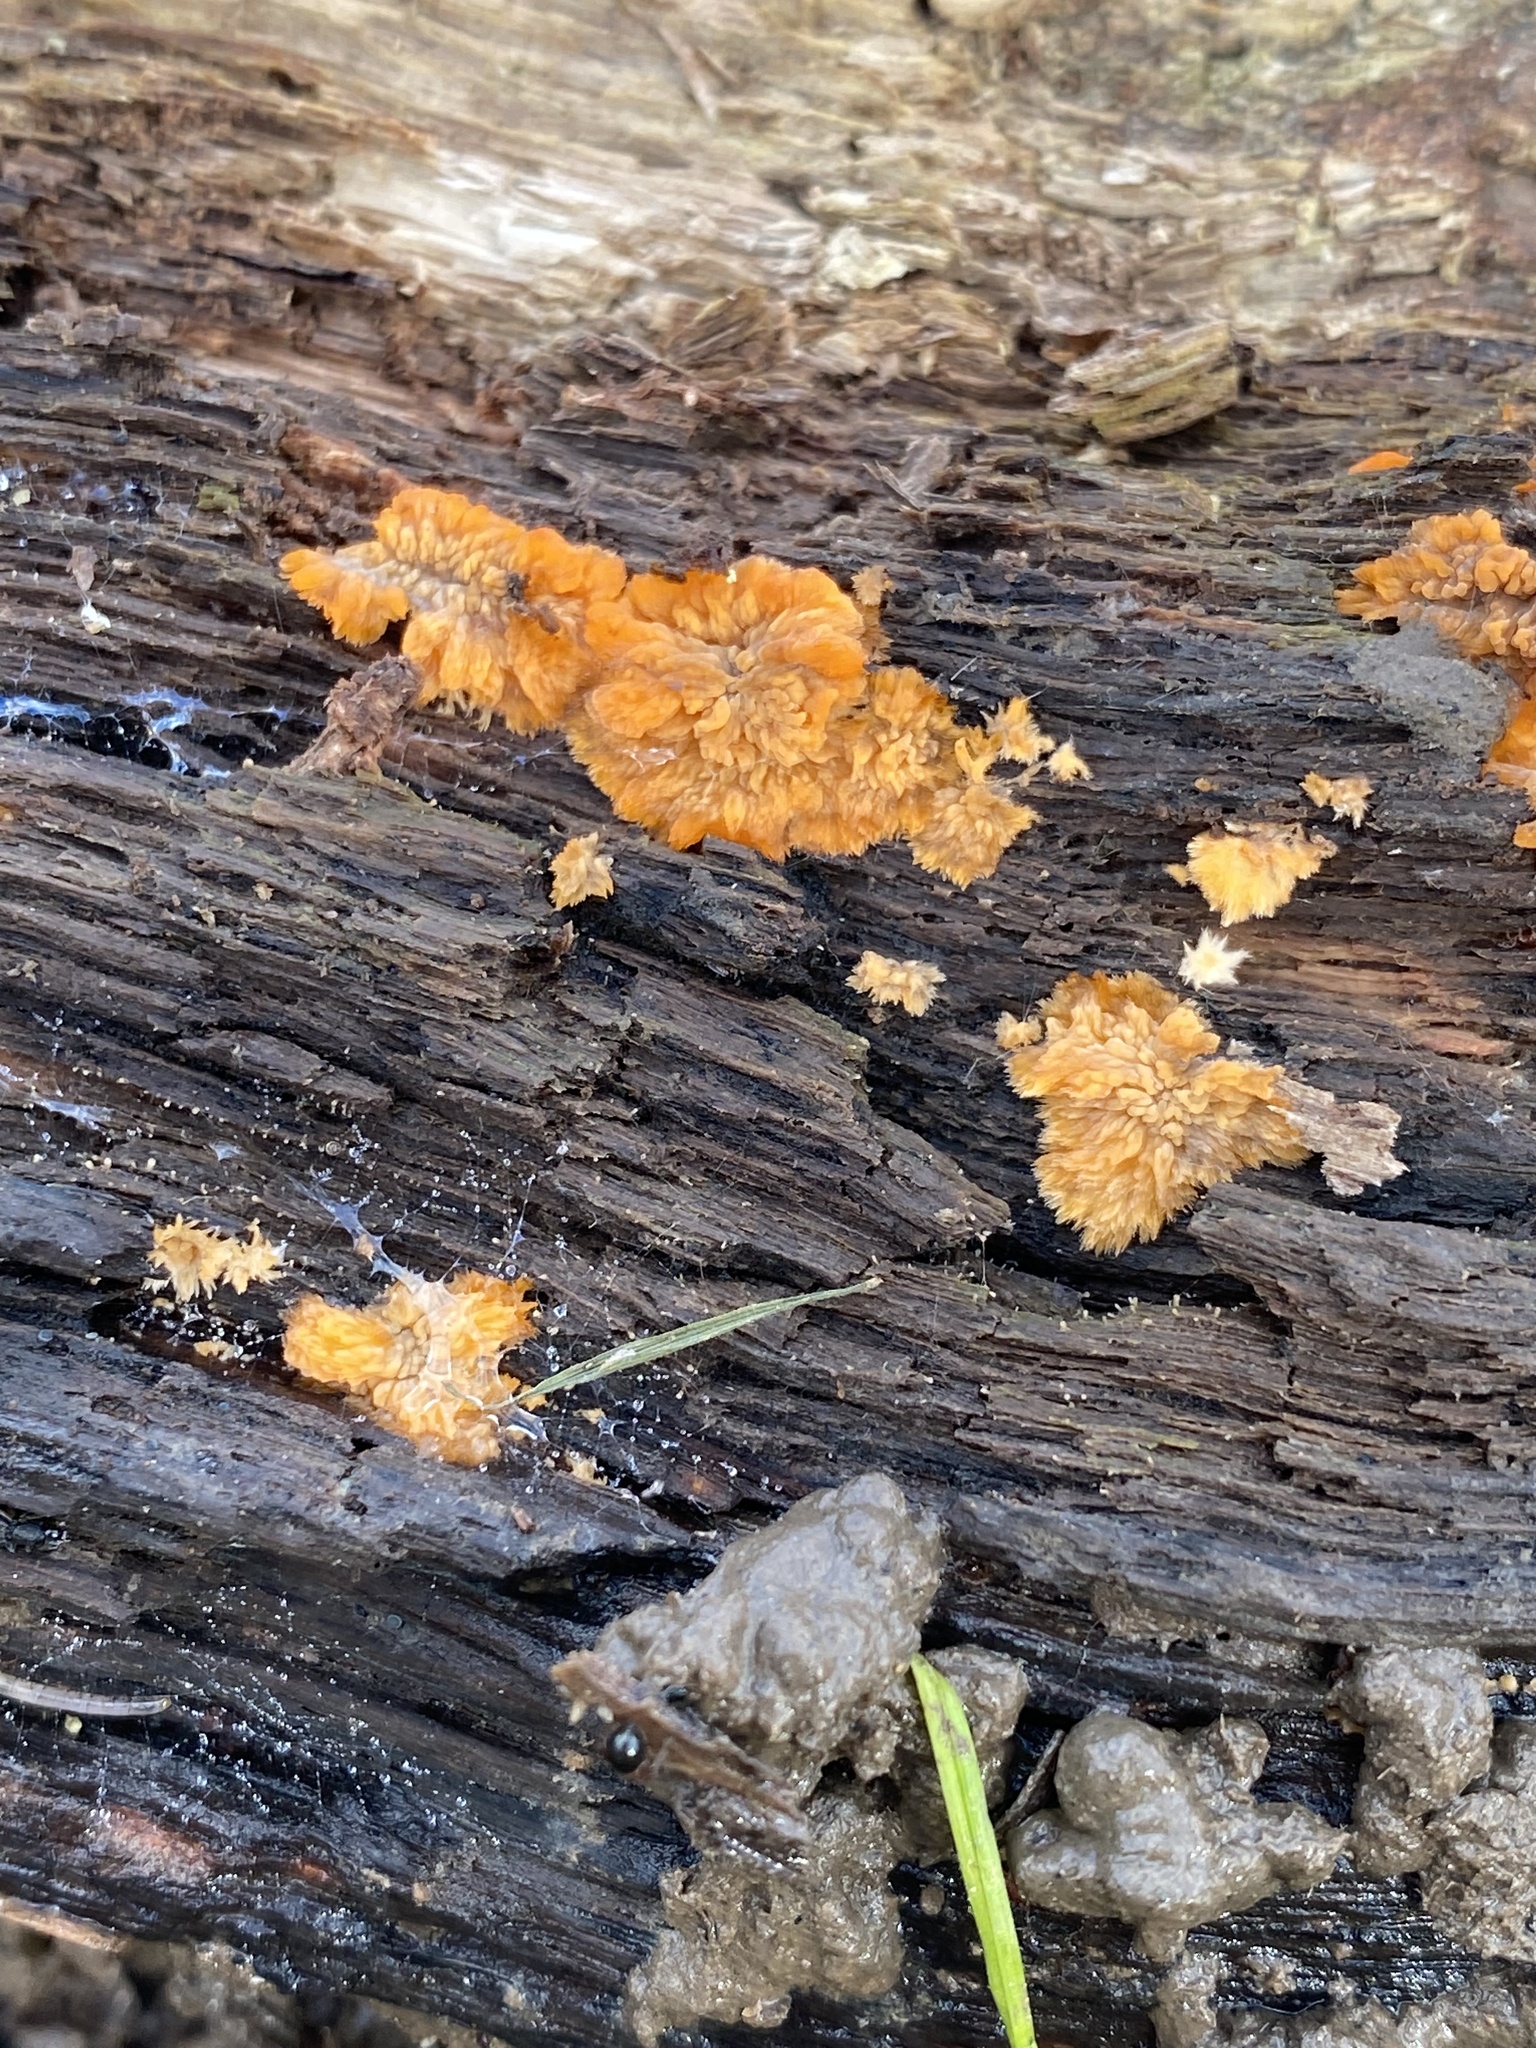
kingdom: Fungi
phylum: Basidiomycota
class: Agaricomycetes
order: Polyporales
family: Meruliaceae
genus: Phlebia
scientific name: Phlebia radiata
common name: Wrinkled crust
